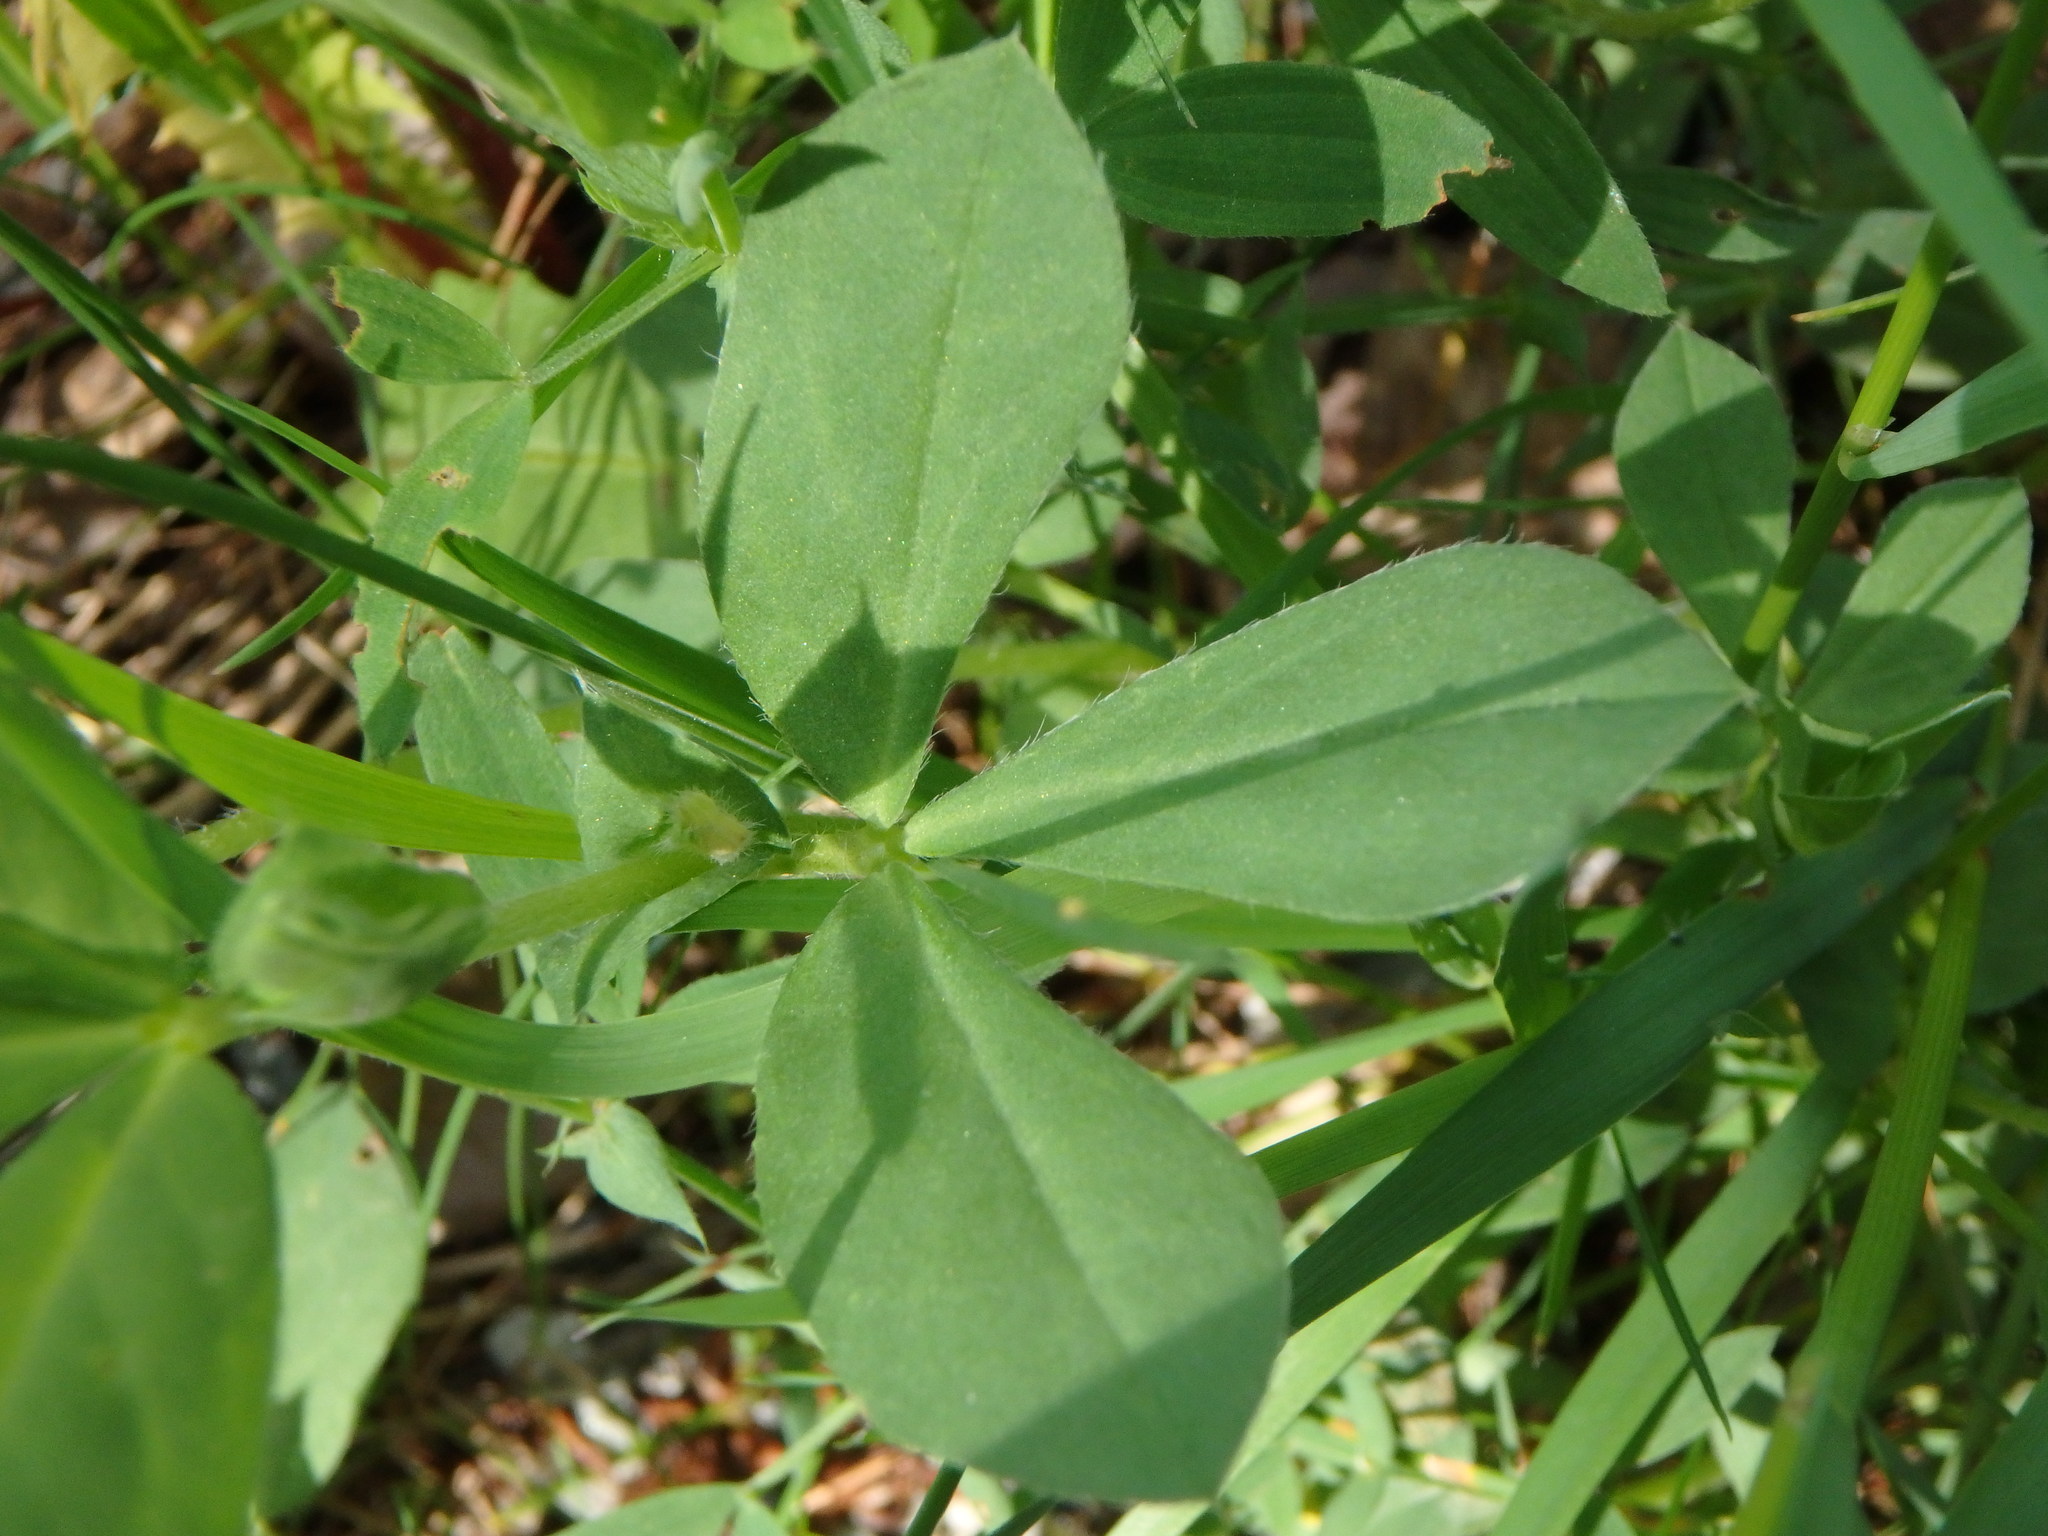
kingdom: Plantae
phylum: Tracheophyta
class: Magnoliopsida
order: Fabales
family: Fabaceae
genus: Lotus
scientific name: Lotus maritimus
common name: Dragon's-teeth
